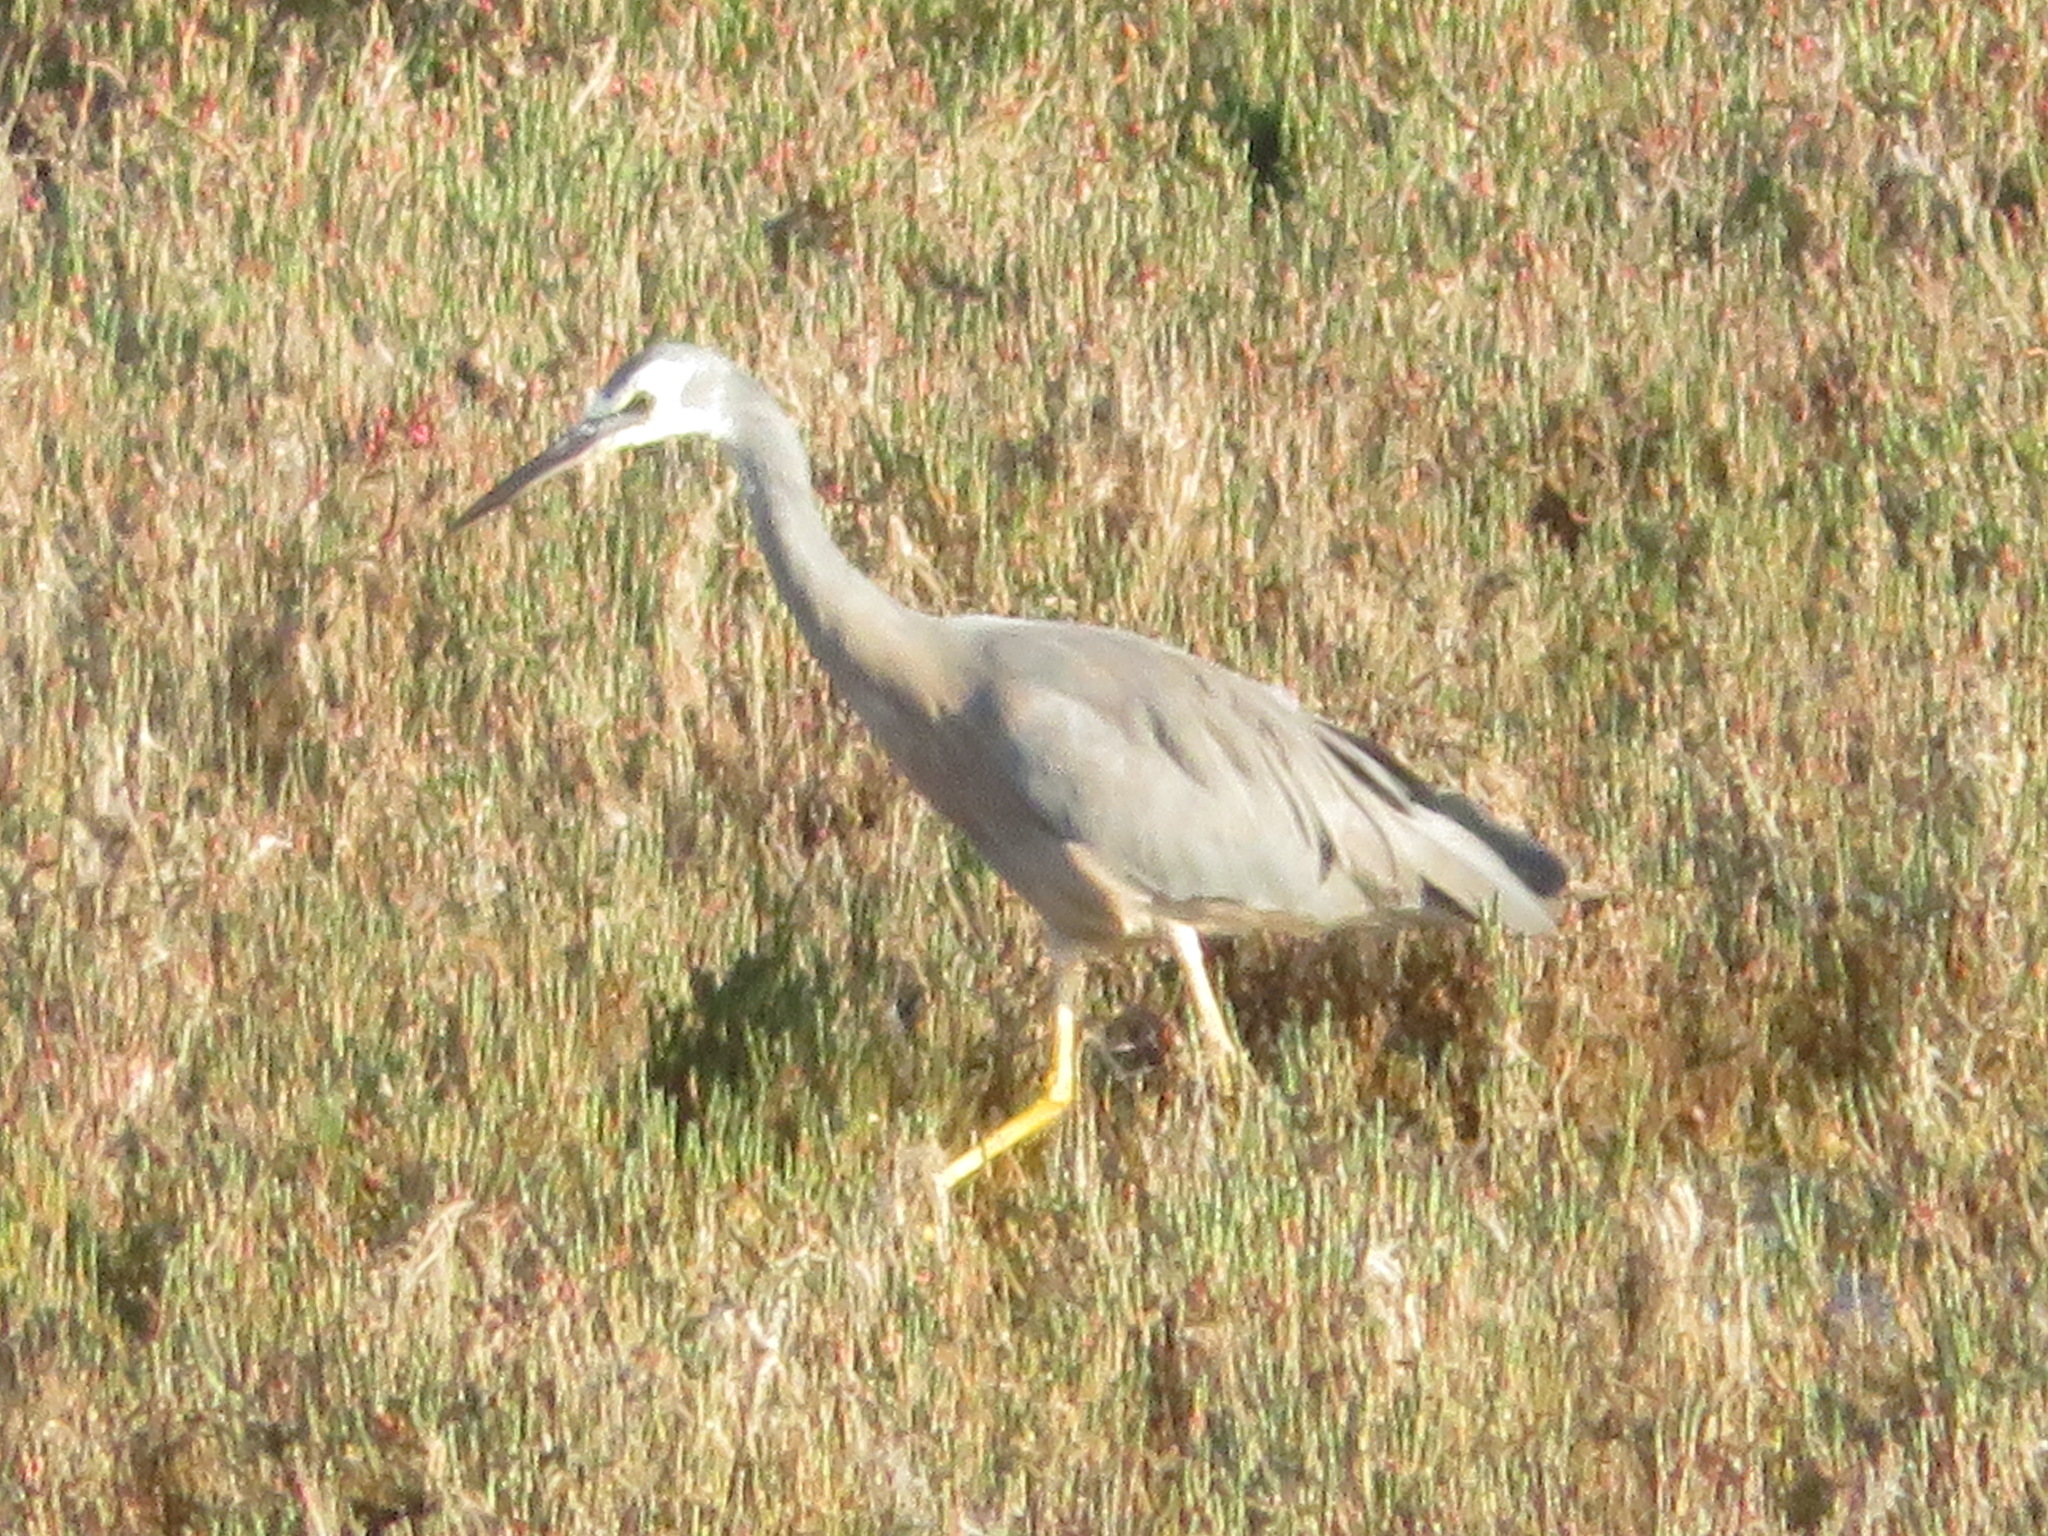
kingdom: Animalia
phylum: Chordata
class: Aves
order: Pelecaniformes
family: Ardeidae
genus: Egretta
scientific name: Egretta novaehollandiae
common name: White-faced heron
